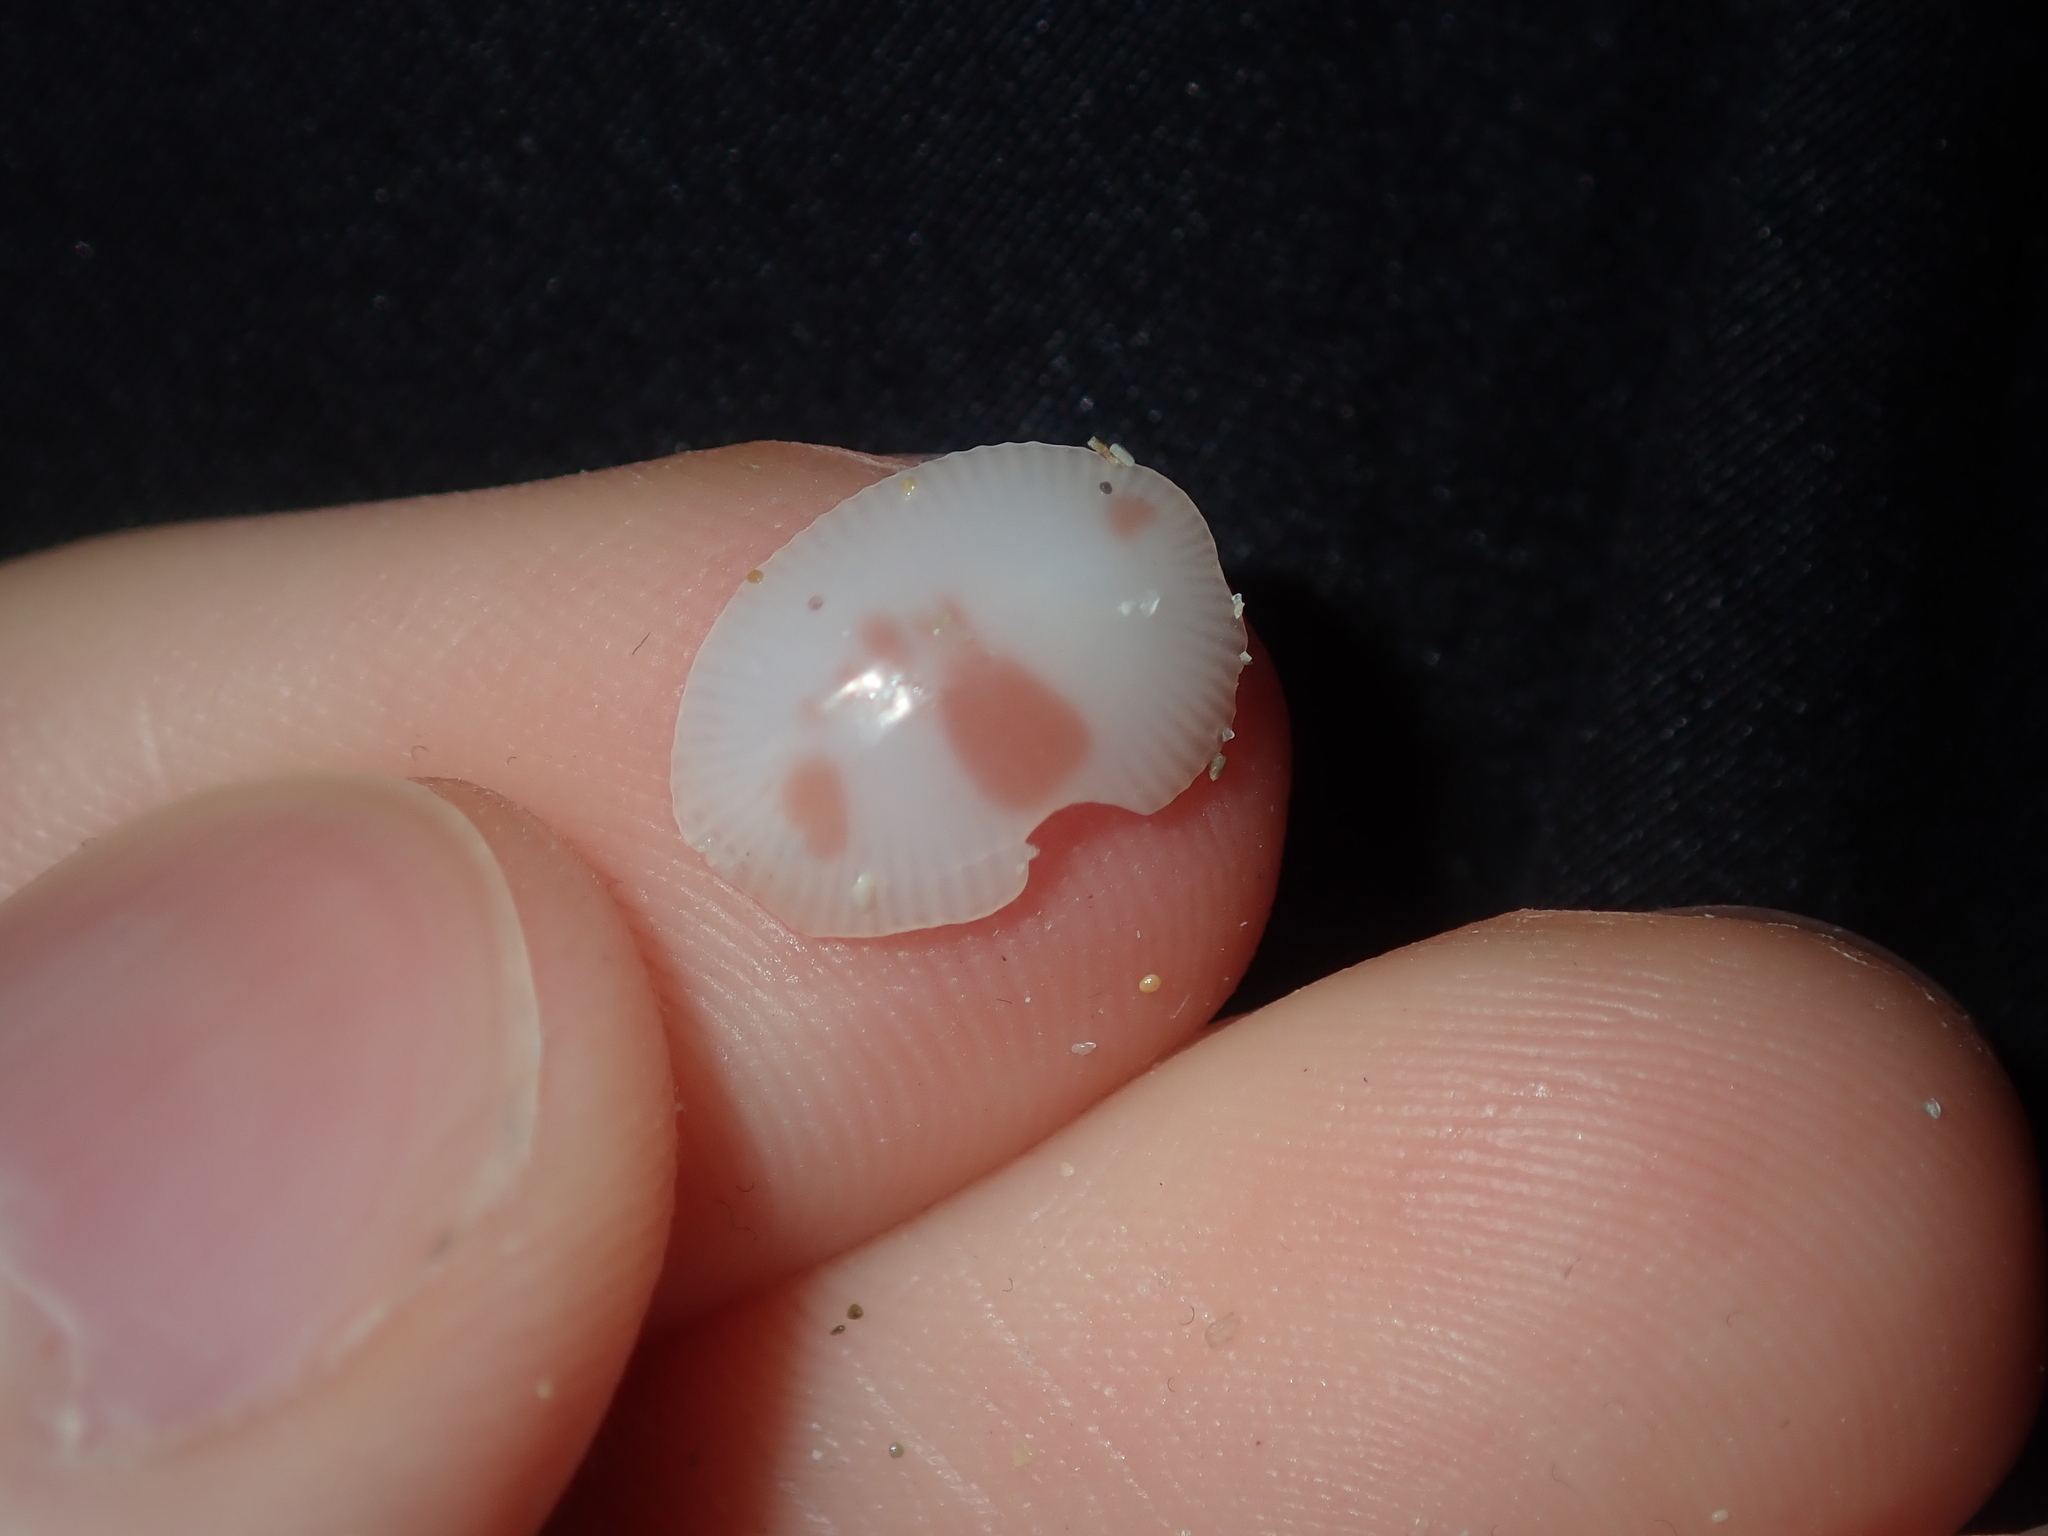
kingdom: Animalia
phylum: Mollusca
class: Gastropoda
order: Littorinimorpha
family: Triviidae
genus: Ellatrivia
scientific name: Ellatrivia merces
